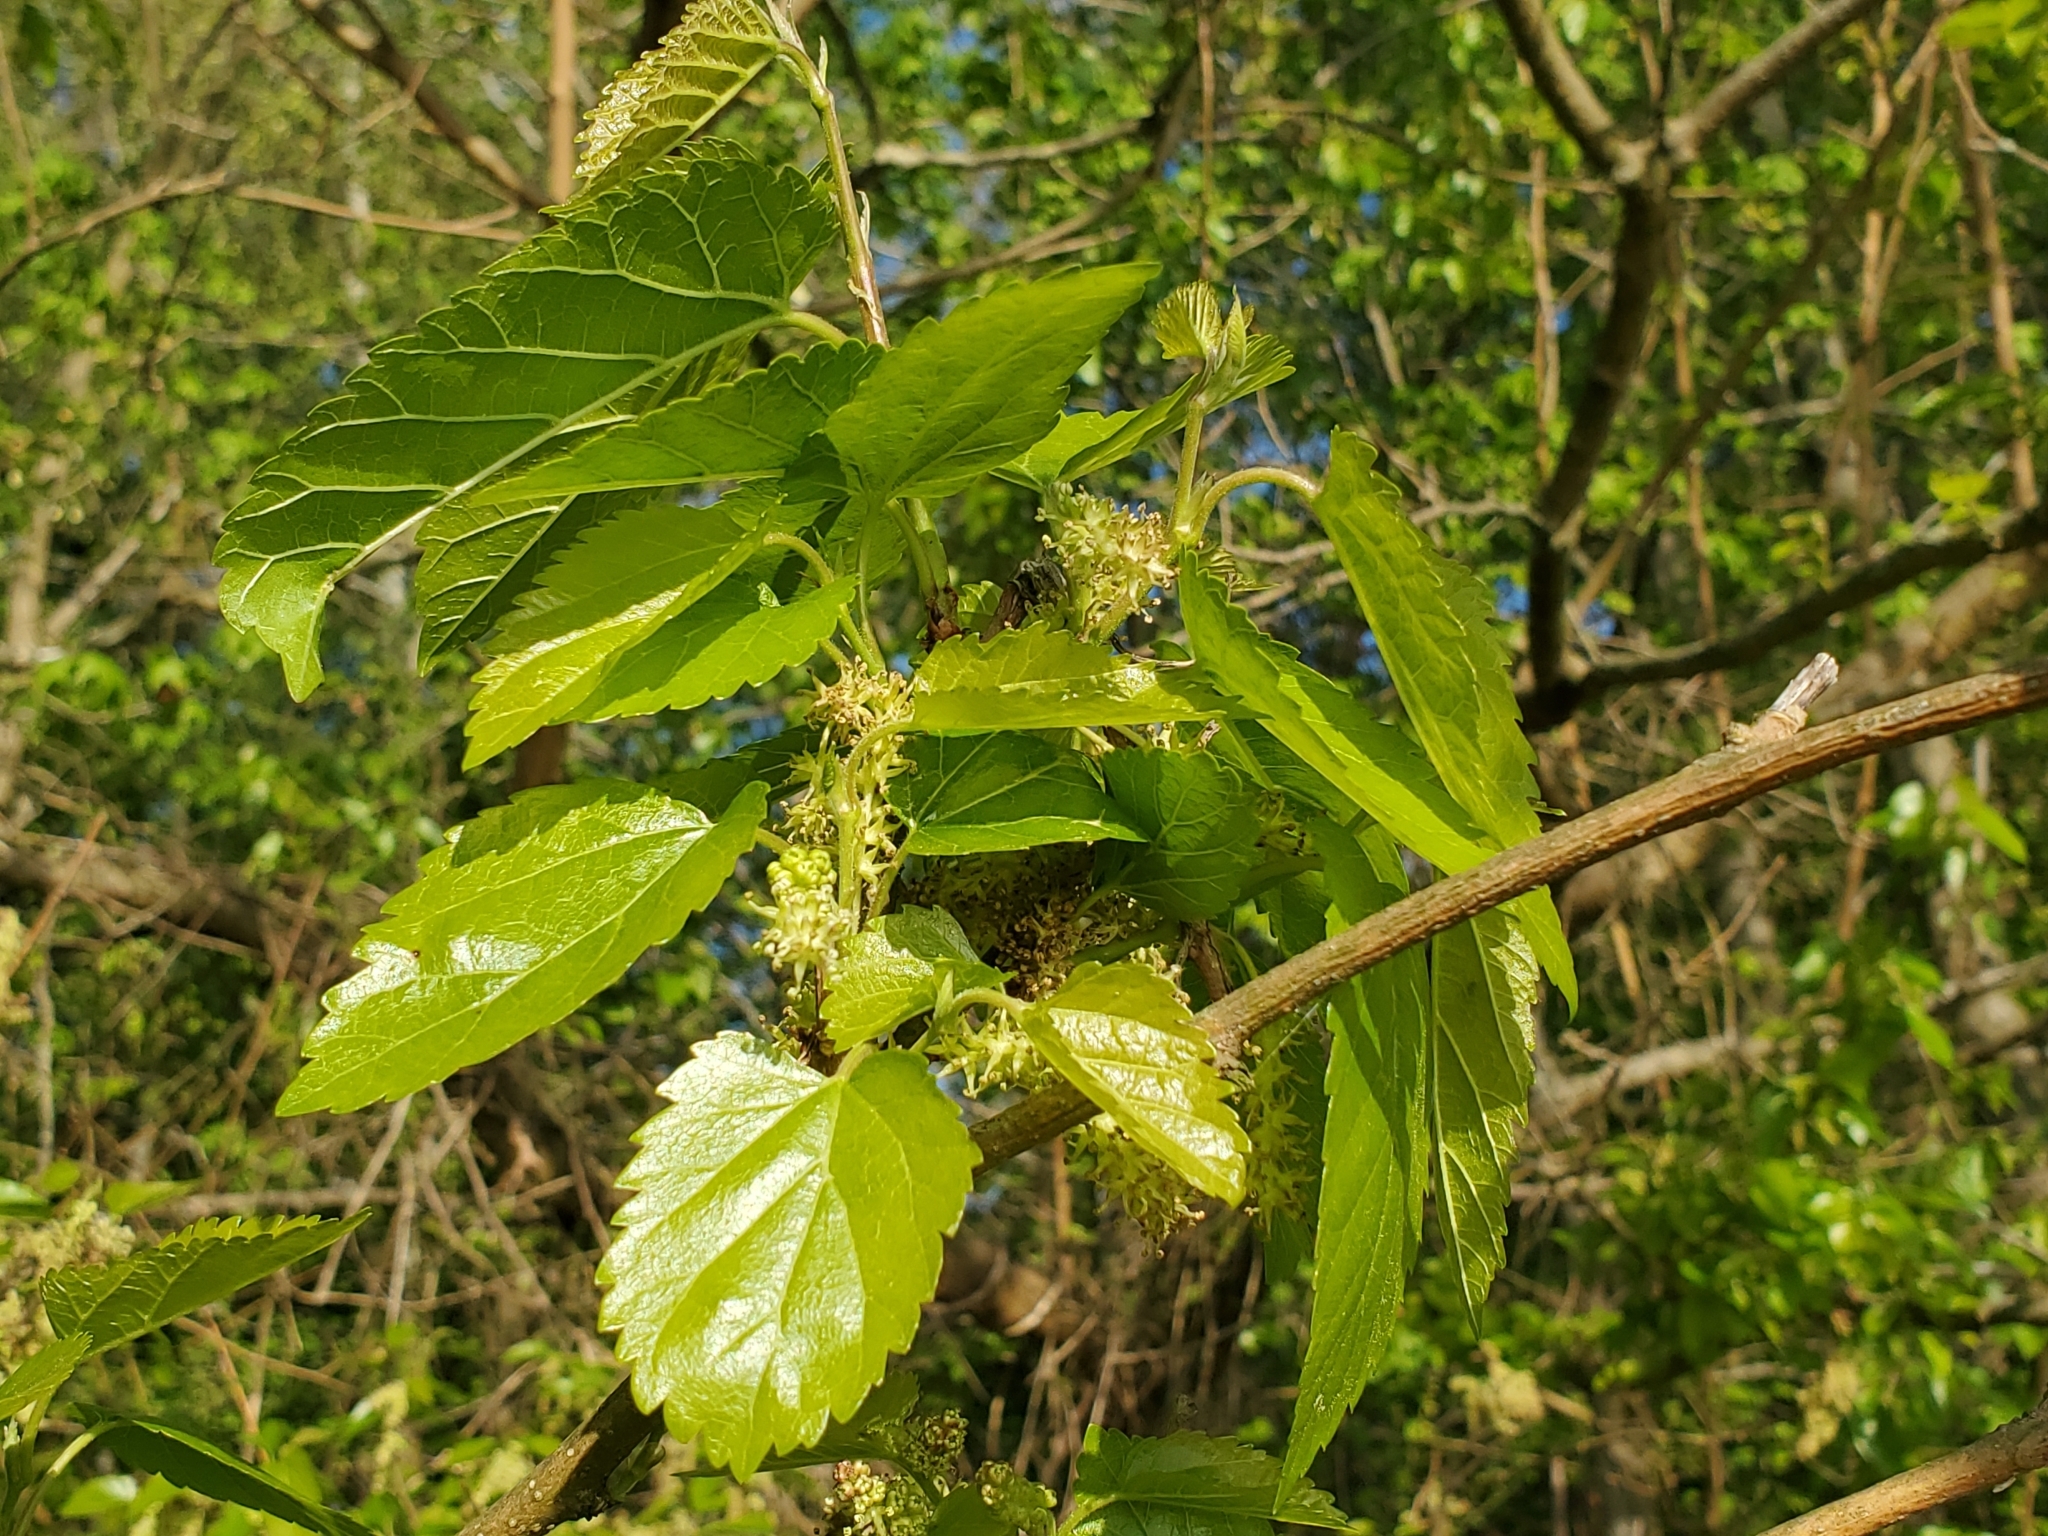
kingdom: Plantae
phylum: Tracheophyta
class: Magnoliopsida
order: Rosales
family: Moraceae
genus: Morus
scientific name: Morus alba
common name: White mulberry
